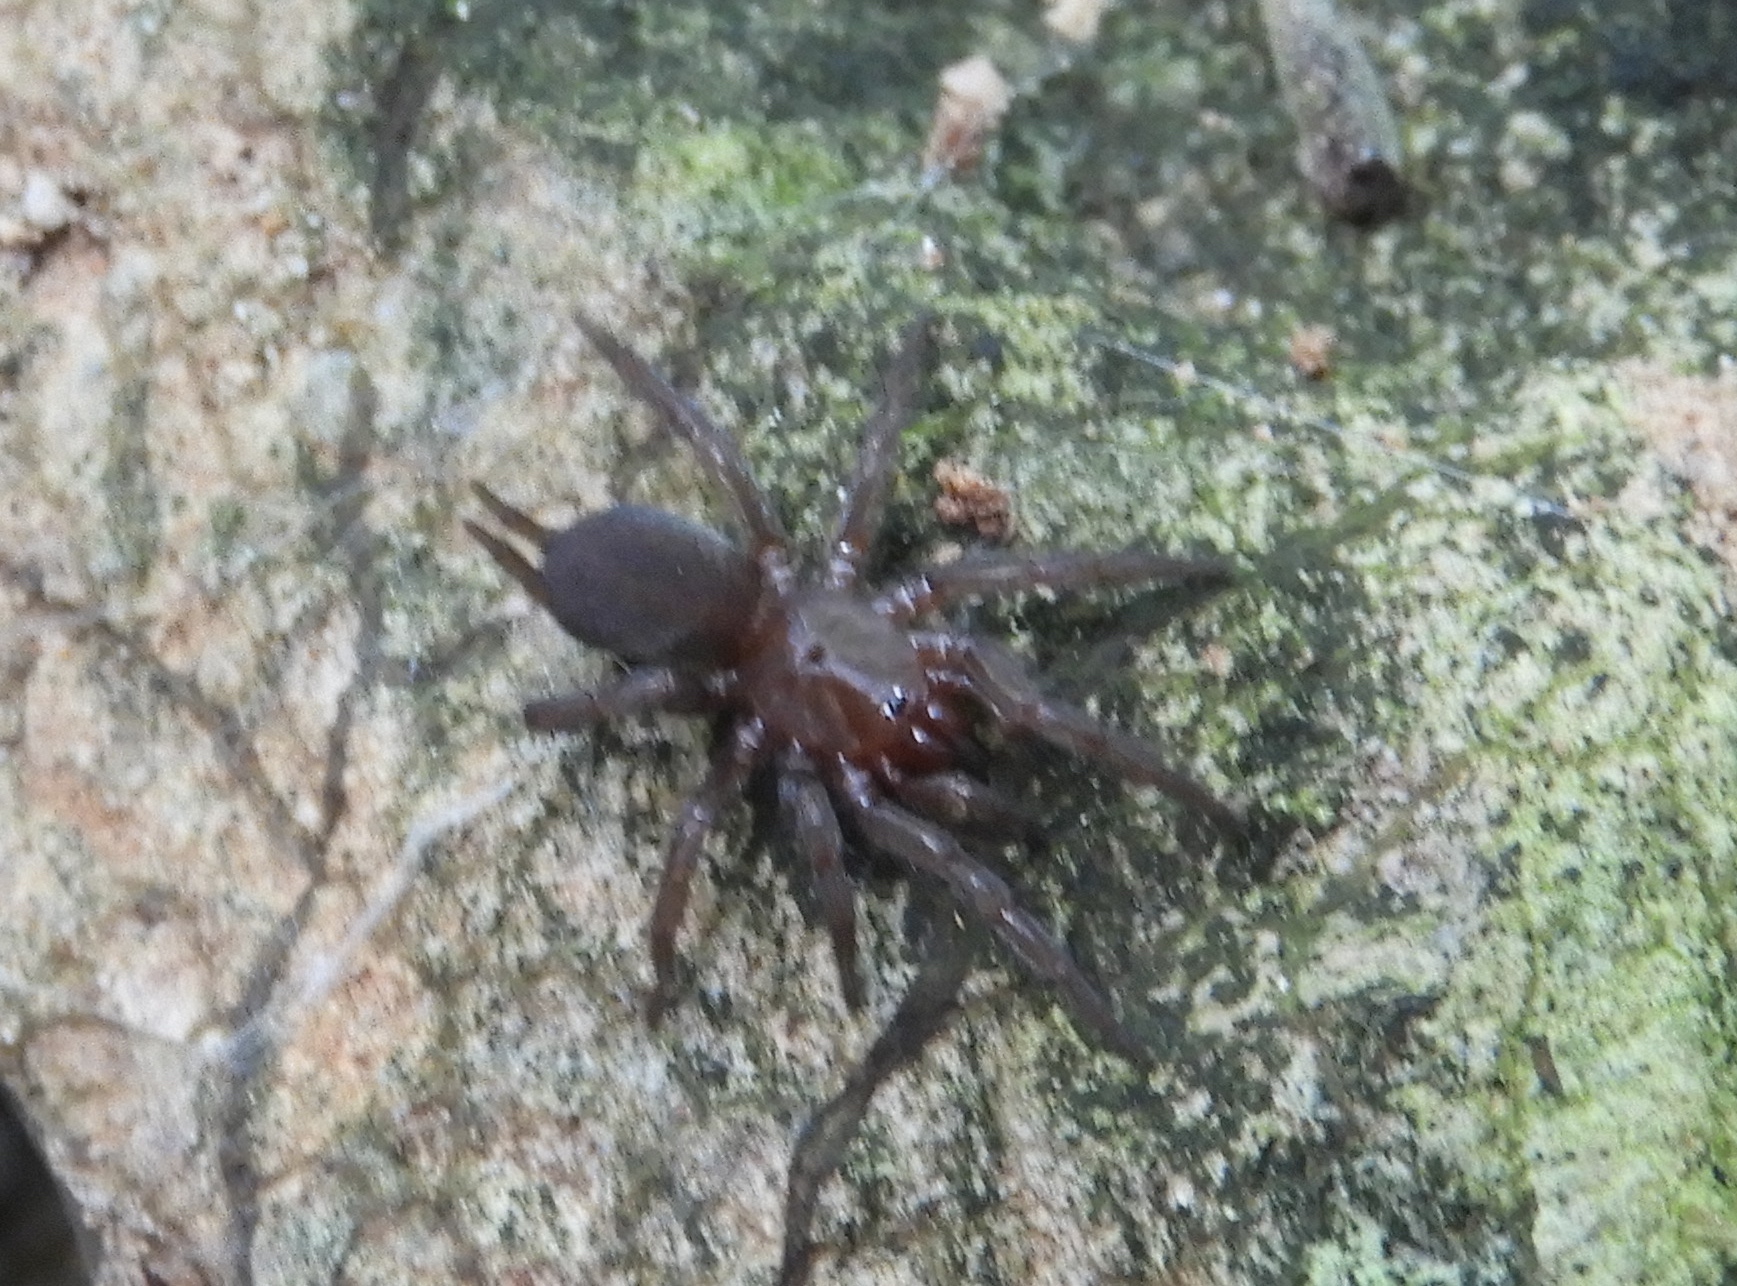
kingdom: Animalia
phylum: Arthropoda
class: Arachnida
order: Araneae
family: Euagridae
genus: Euagrus
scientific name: Euagrus
